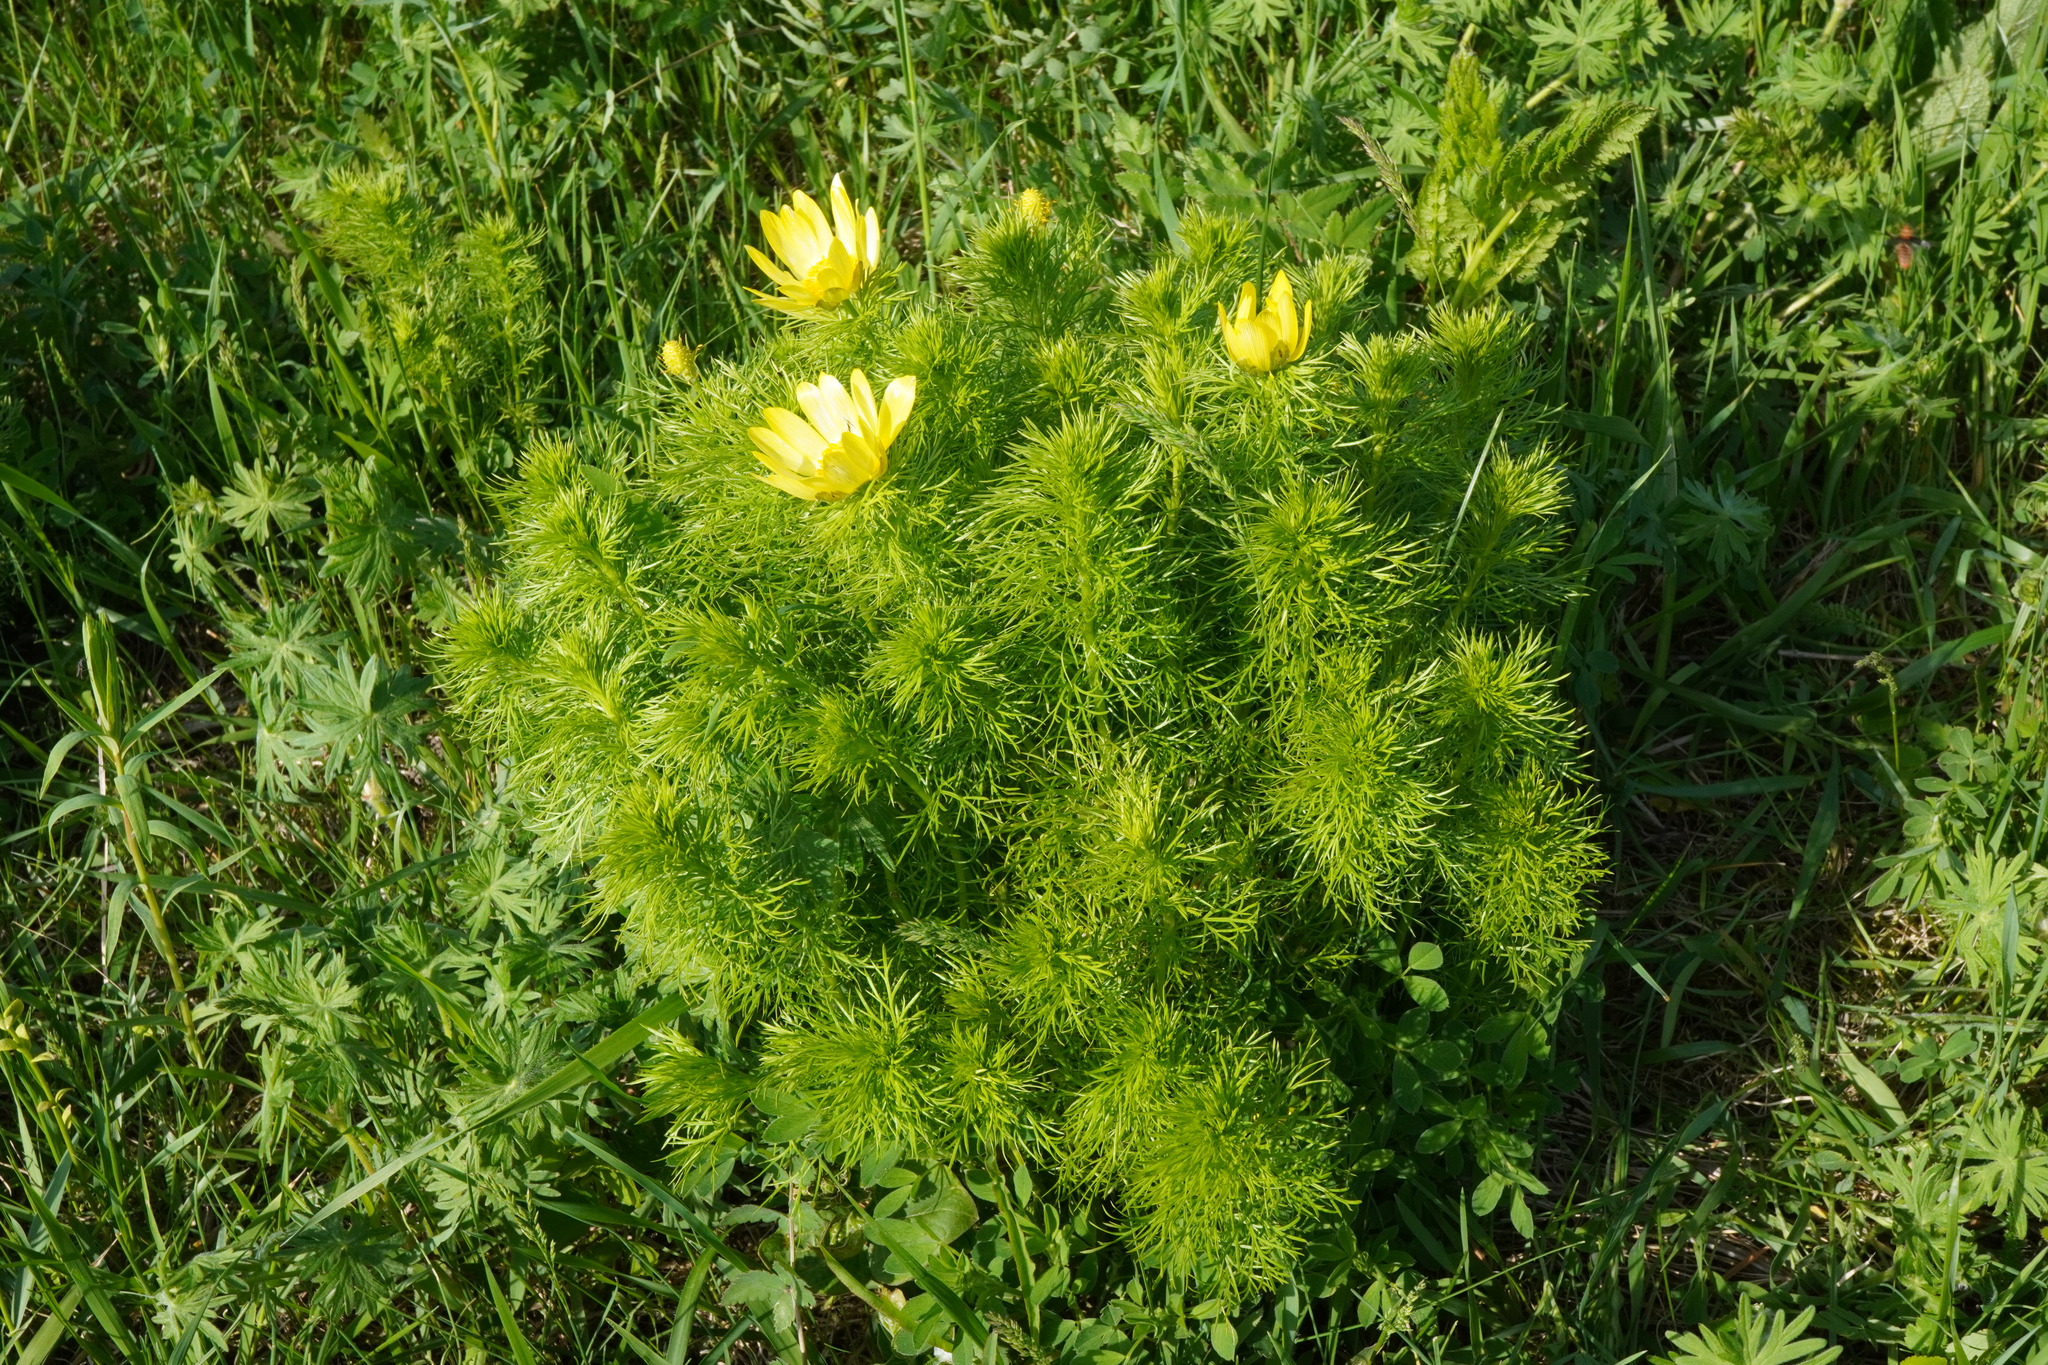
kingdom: Plantae
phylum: Tracheophyta
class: Magnoliopsida
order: Ranunculales
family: Ranunculaceae
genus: Adonis
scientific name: Adonis vernalis
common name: Yellow pheasants-eye
